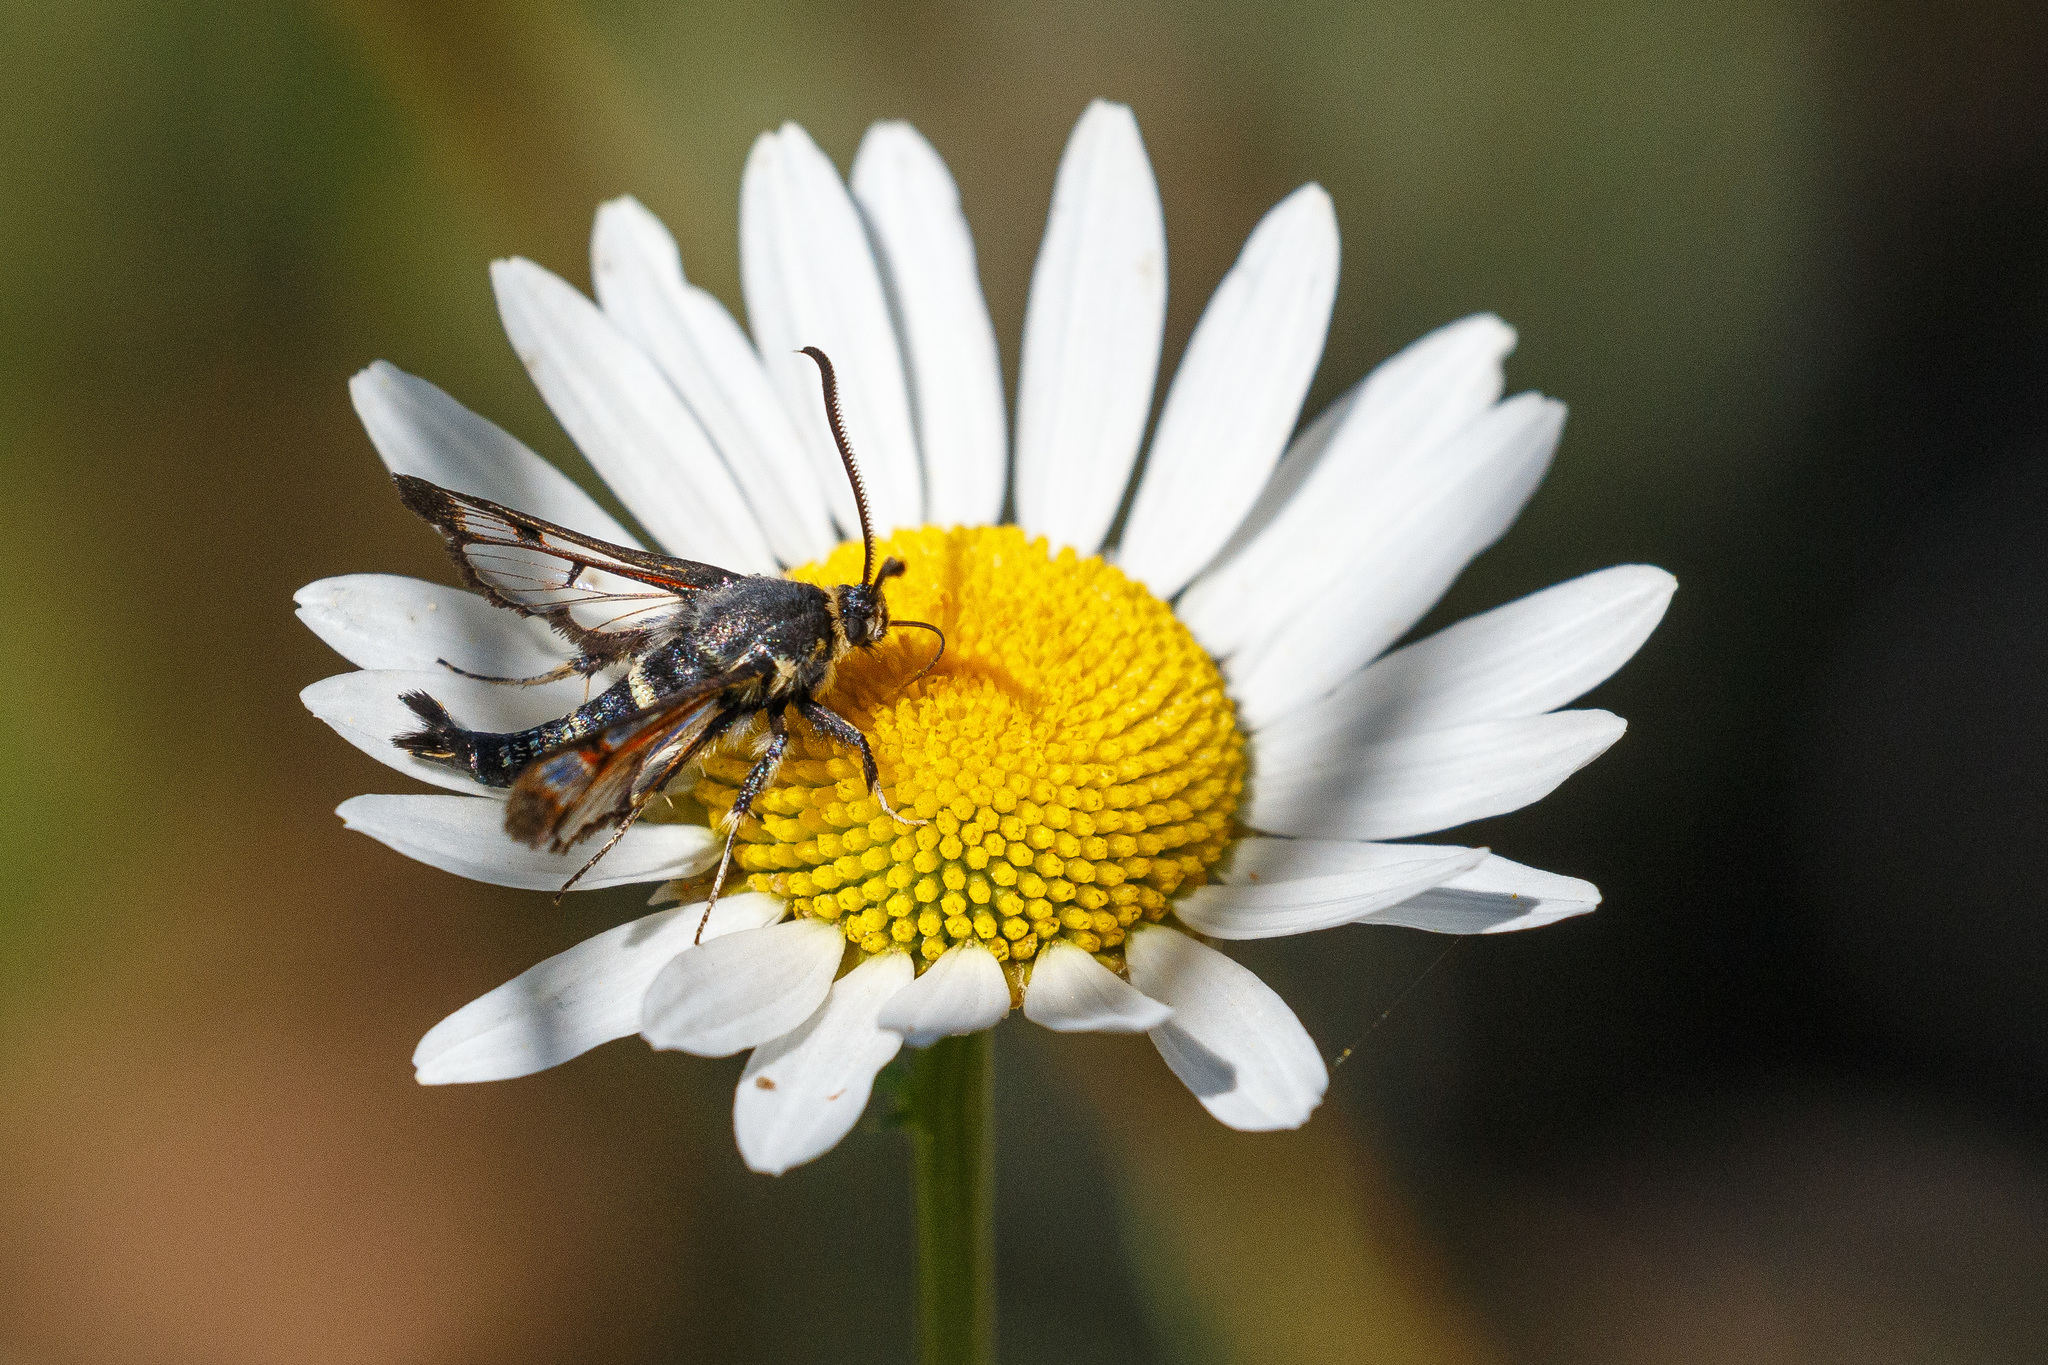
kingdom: Animalia
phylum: Arthropoda
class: Insecta
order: Lepidoptera
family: Sesiidae
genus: Albuna
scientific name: Albuna pyramidalis
